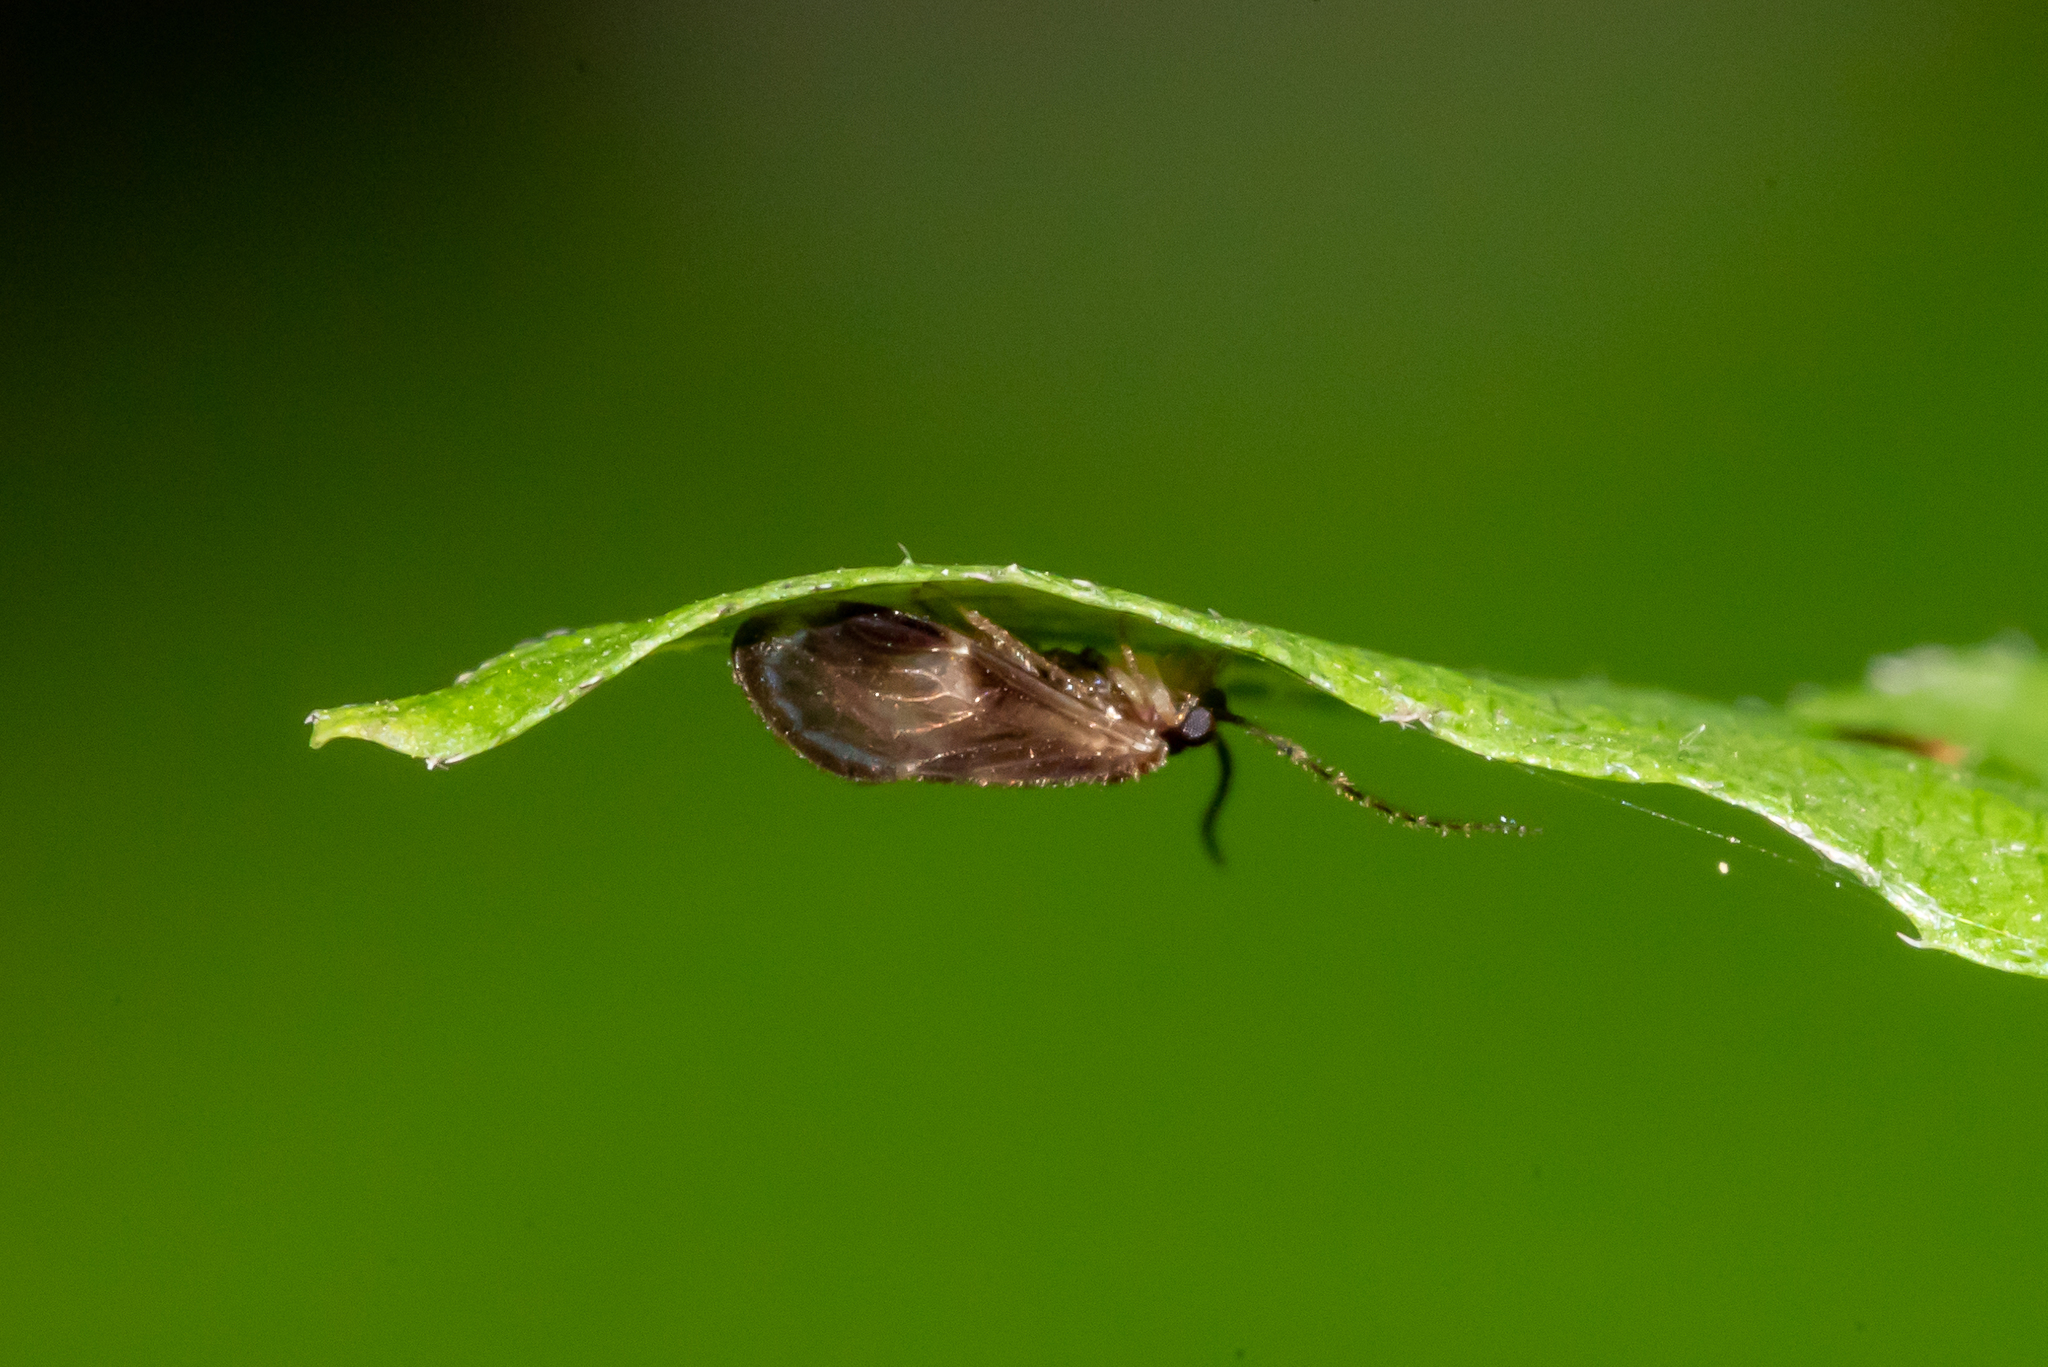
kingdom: Animalia
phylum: Arthropoda
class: Insecta
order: Psocodea
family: Amphipsocidae
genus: Polypsocus
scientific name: Polypsocus corruptus
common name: Corrupt barklouse
